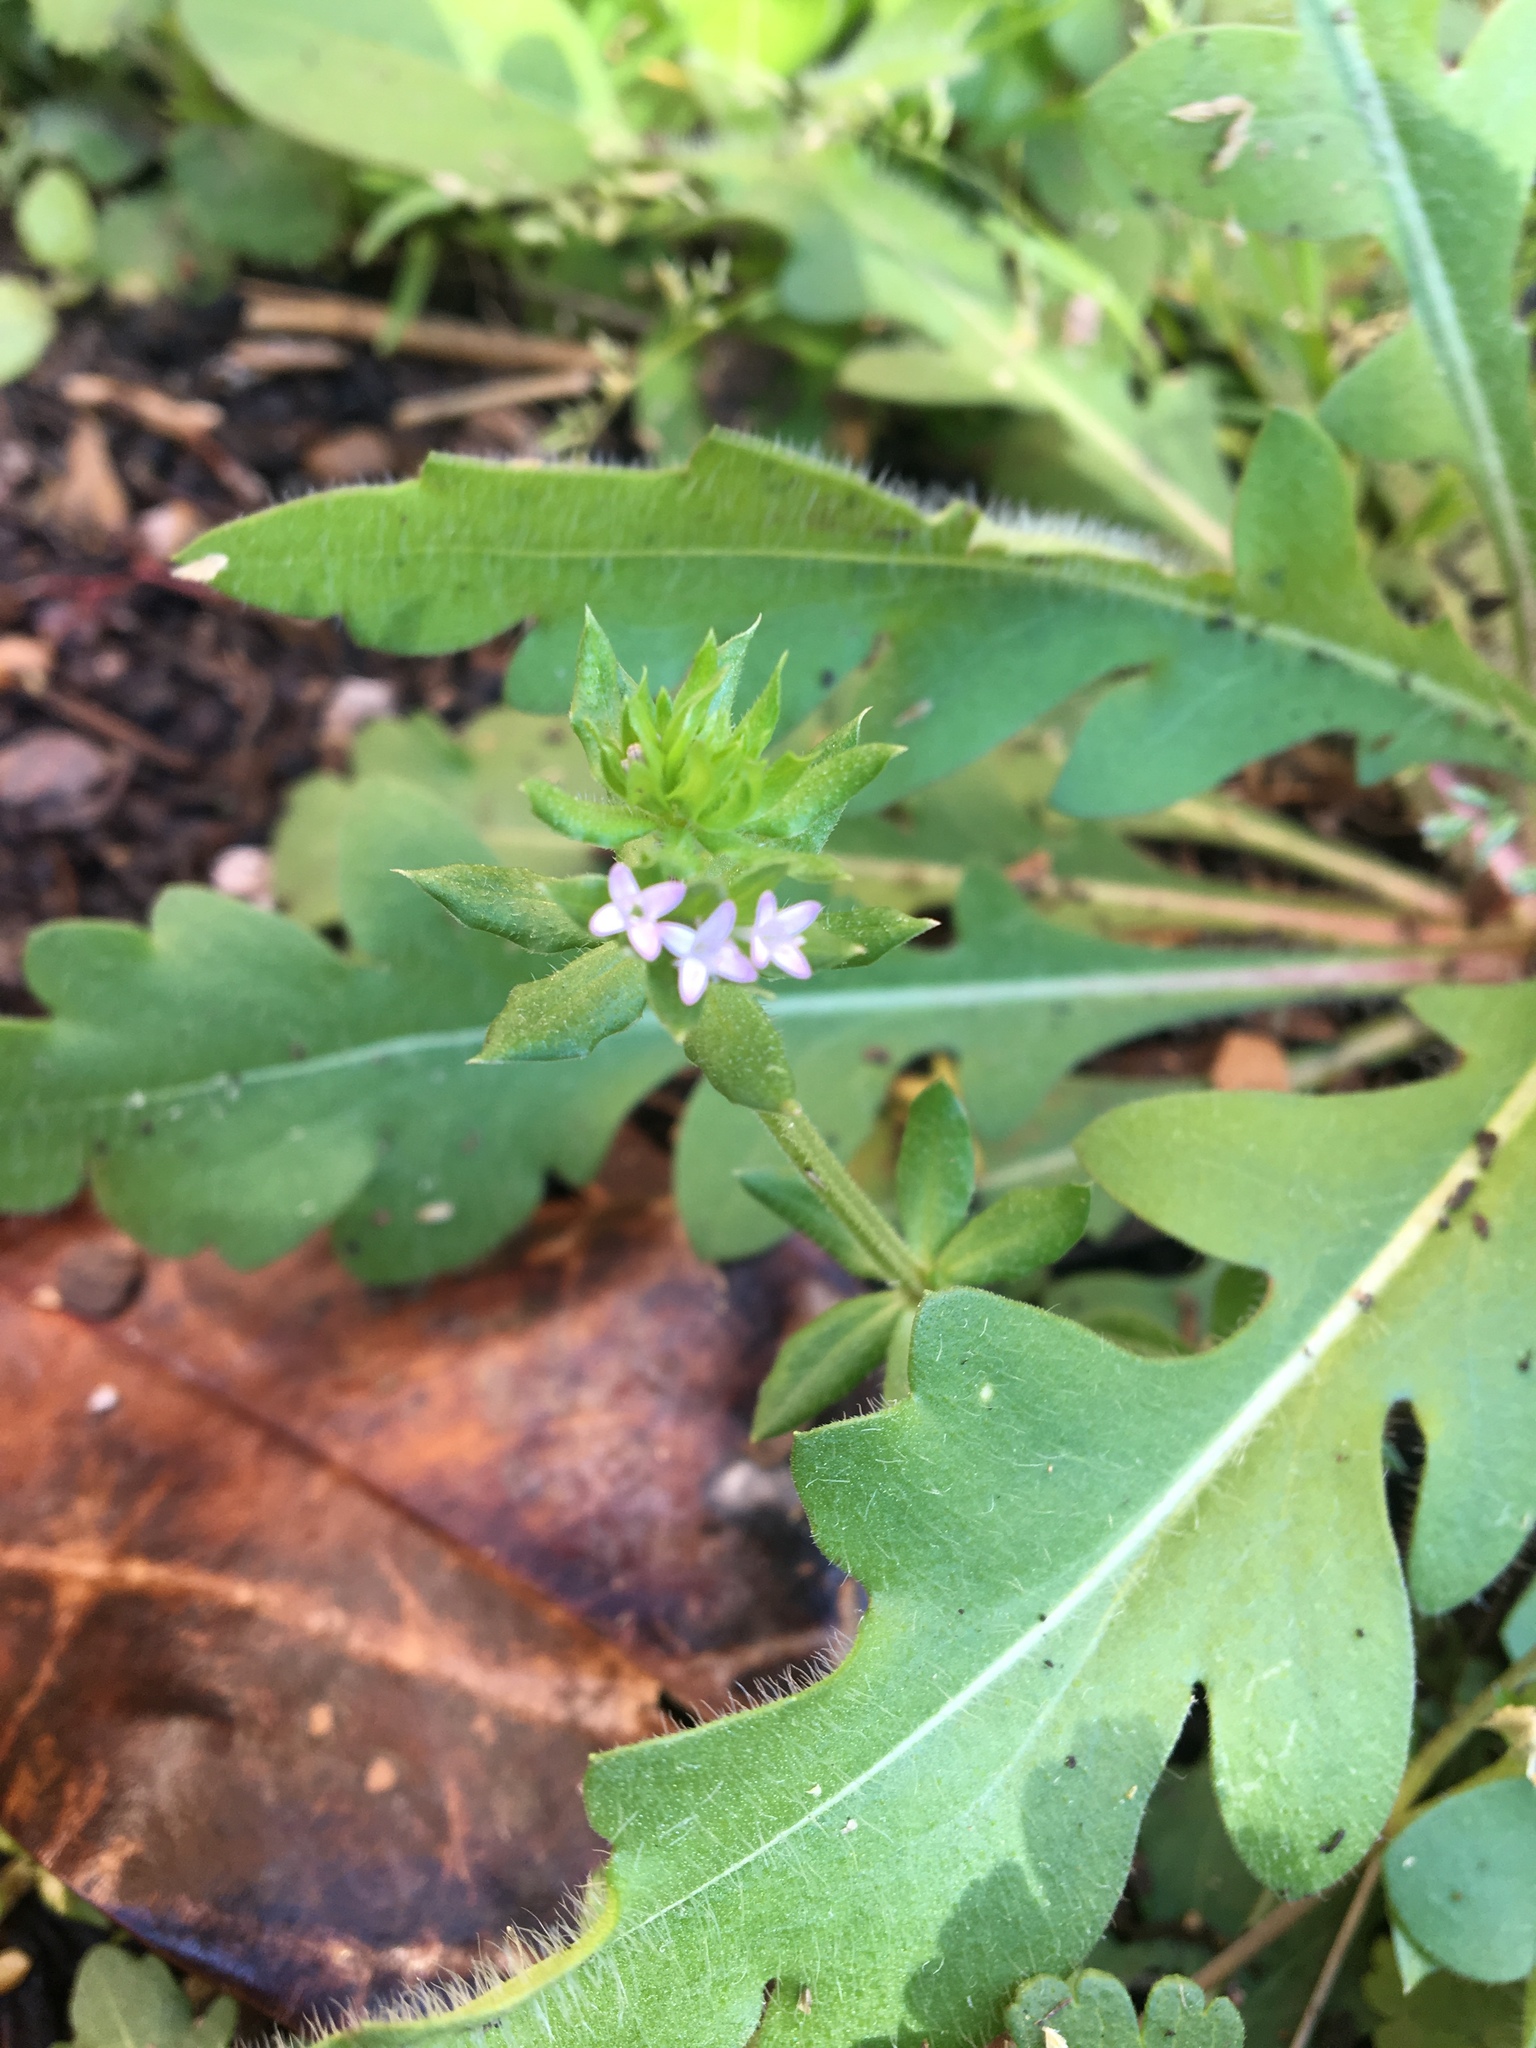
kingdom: Plantae
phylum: Tracheophyta
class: Magnoliopsida
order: Gentianales
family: Rubiaceae
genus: Sherardia
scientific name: Sherardia arvensis
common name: Field madder
